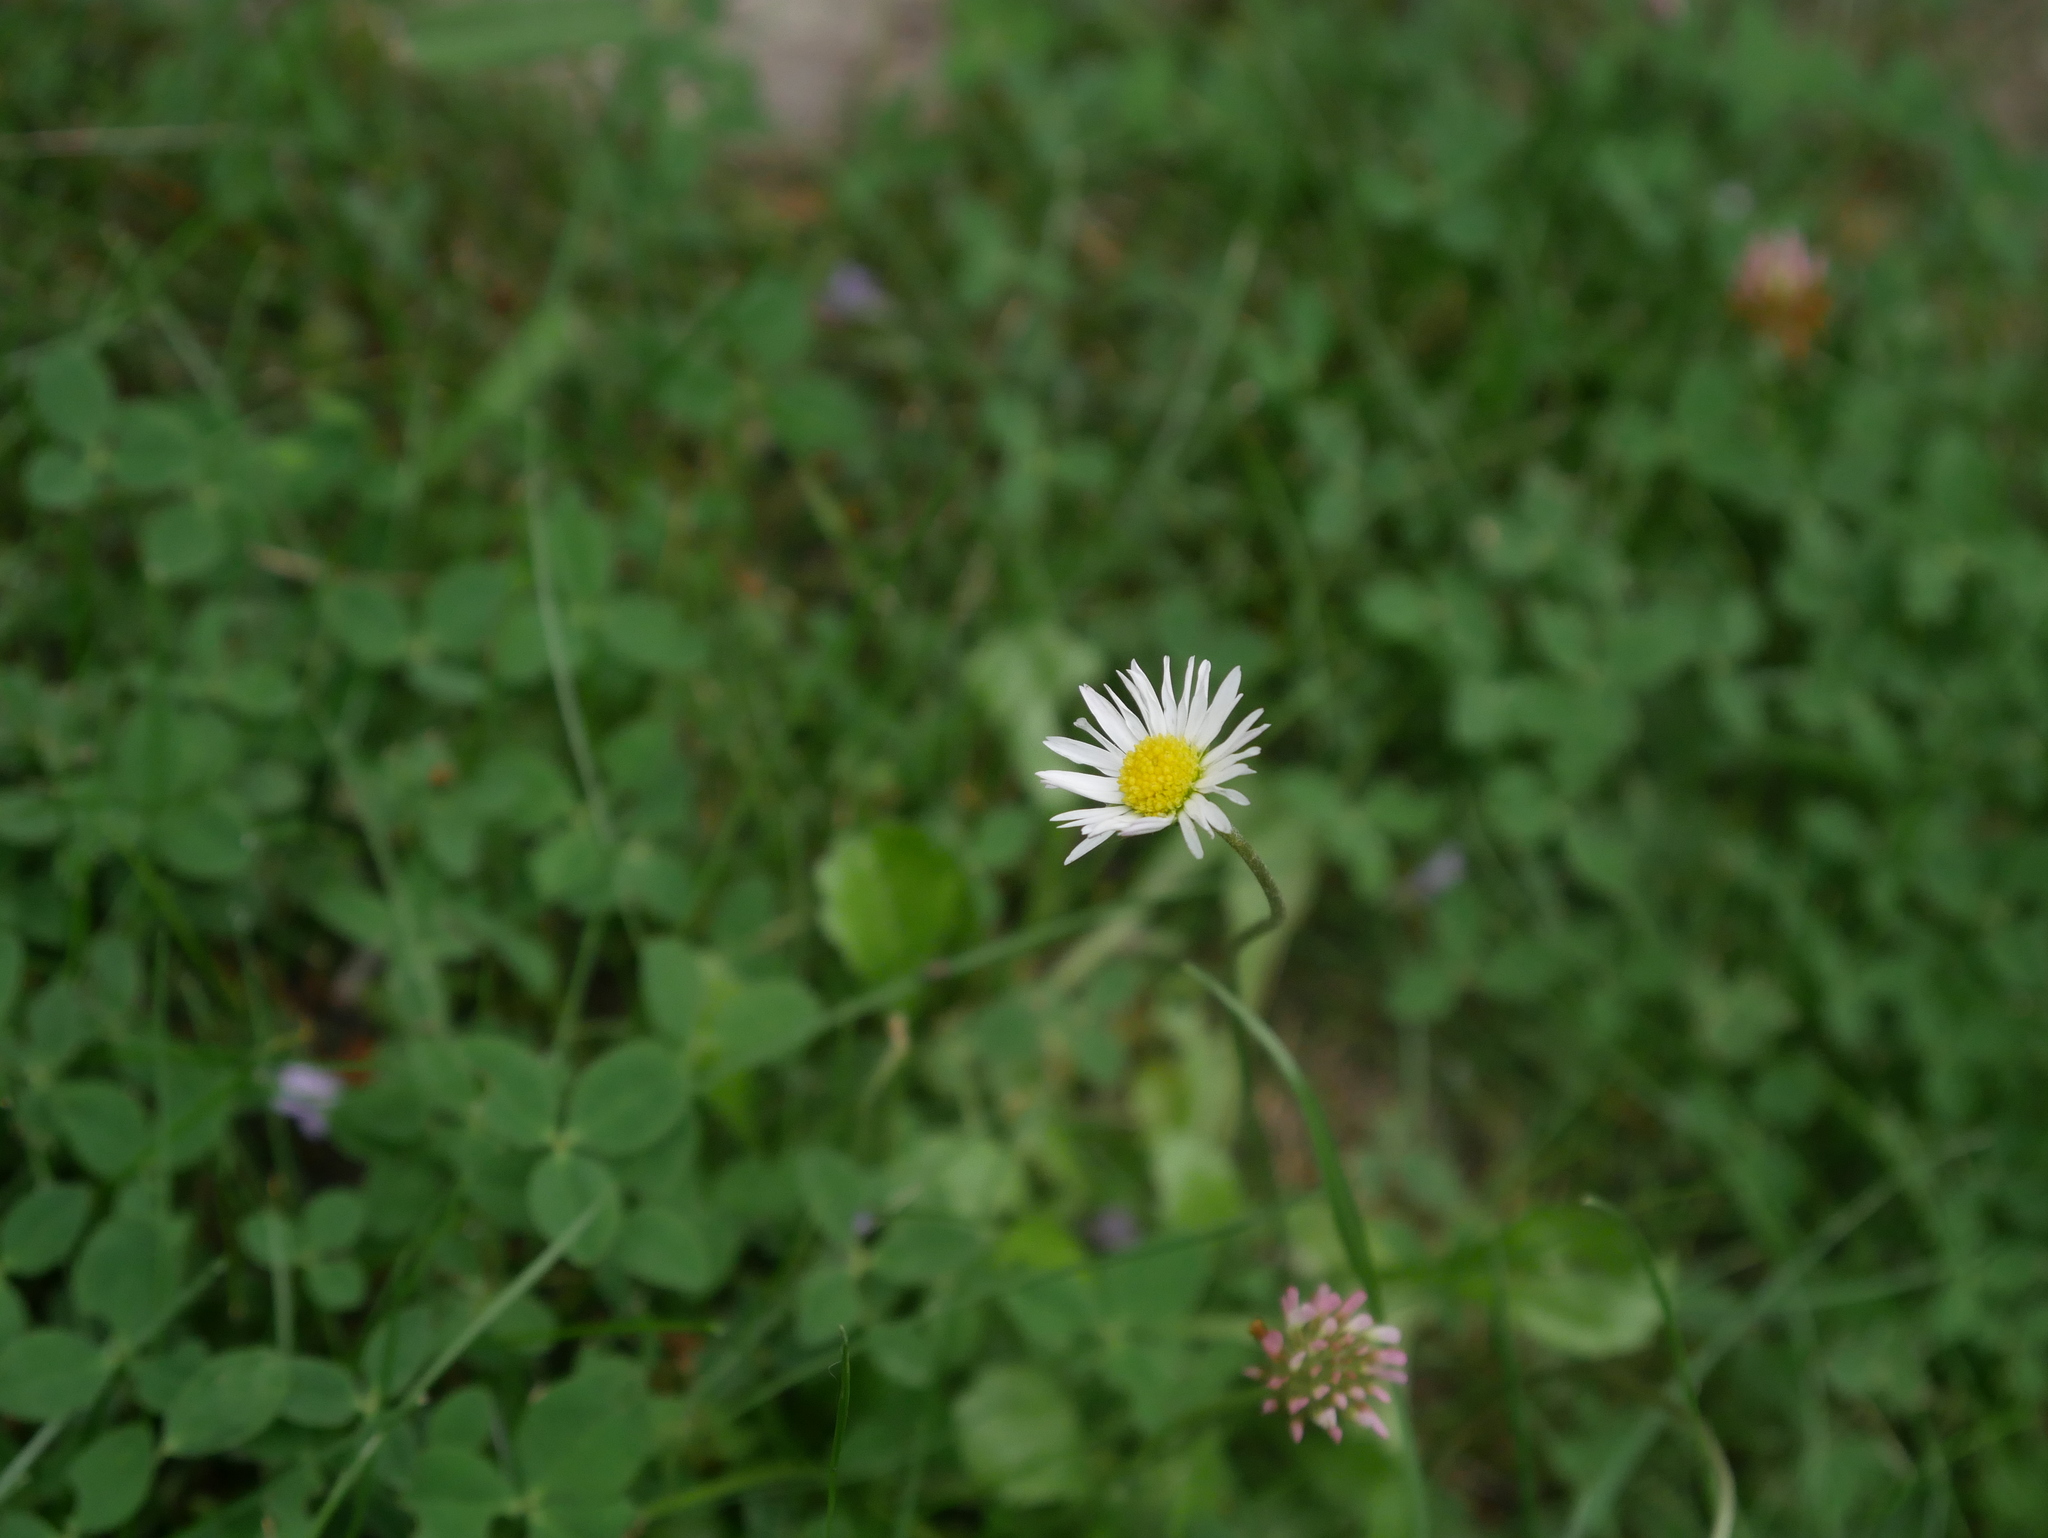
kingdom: Plantae
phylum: Tracheophyta
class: Magnoliopsida
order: Asterales
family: Asteraceae
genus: Bellis
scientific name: Bellis perennis
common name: Lawndaisy
